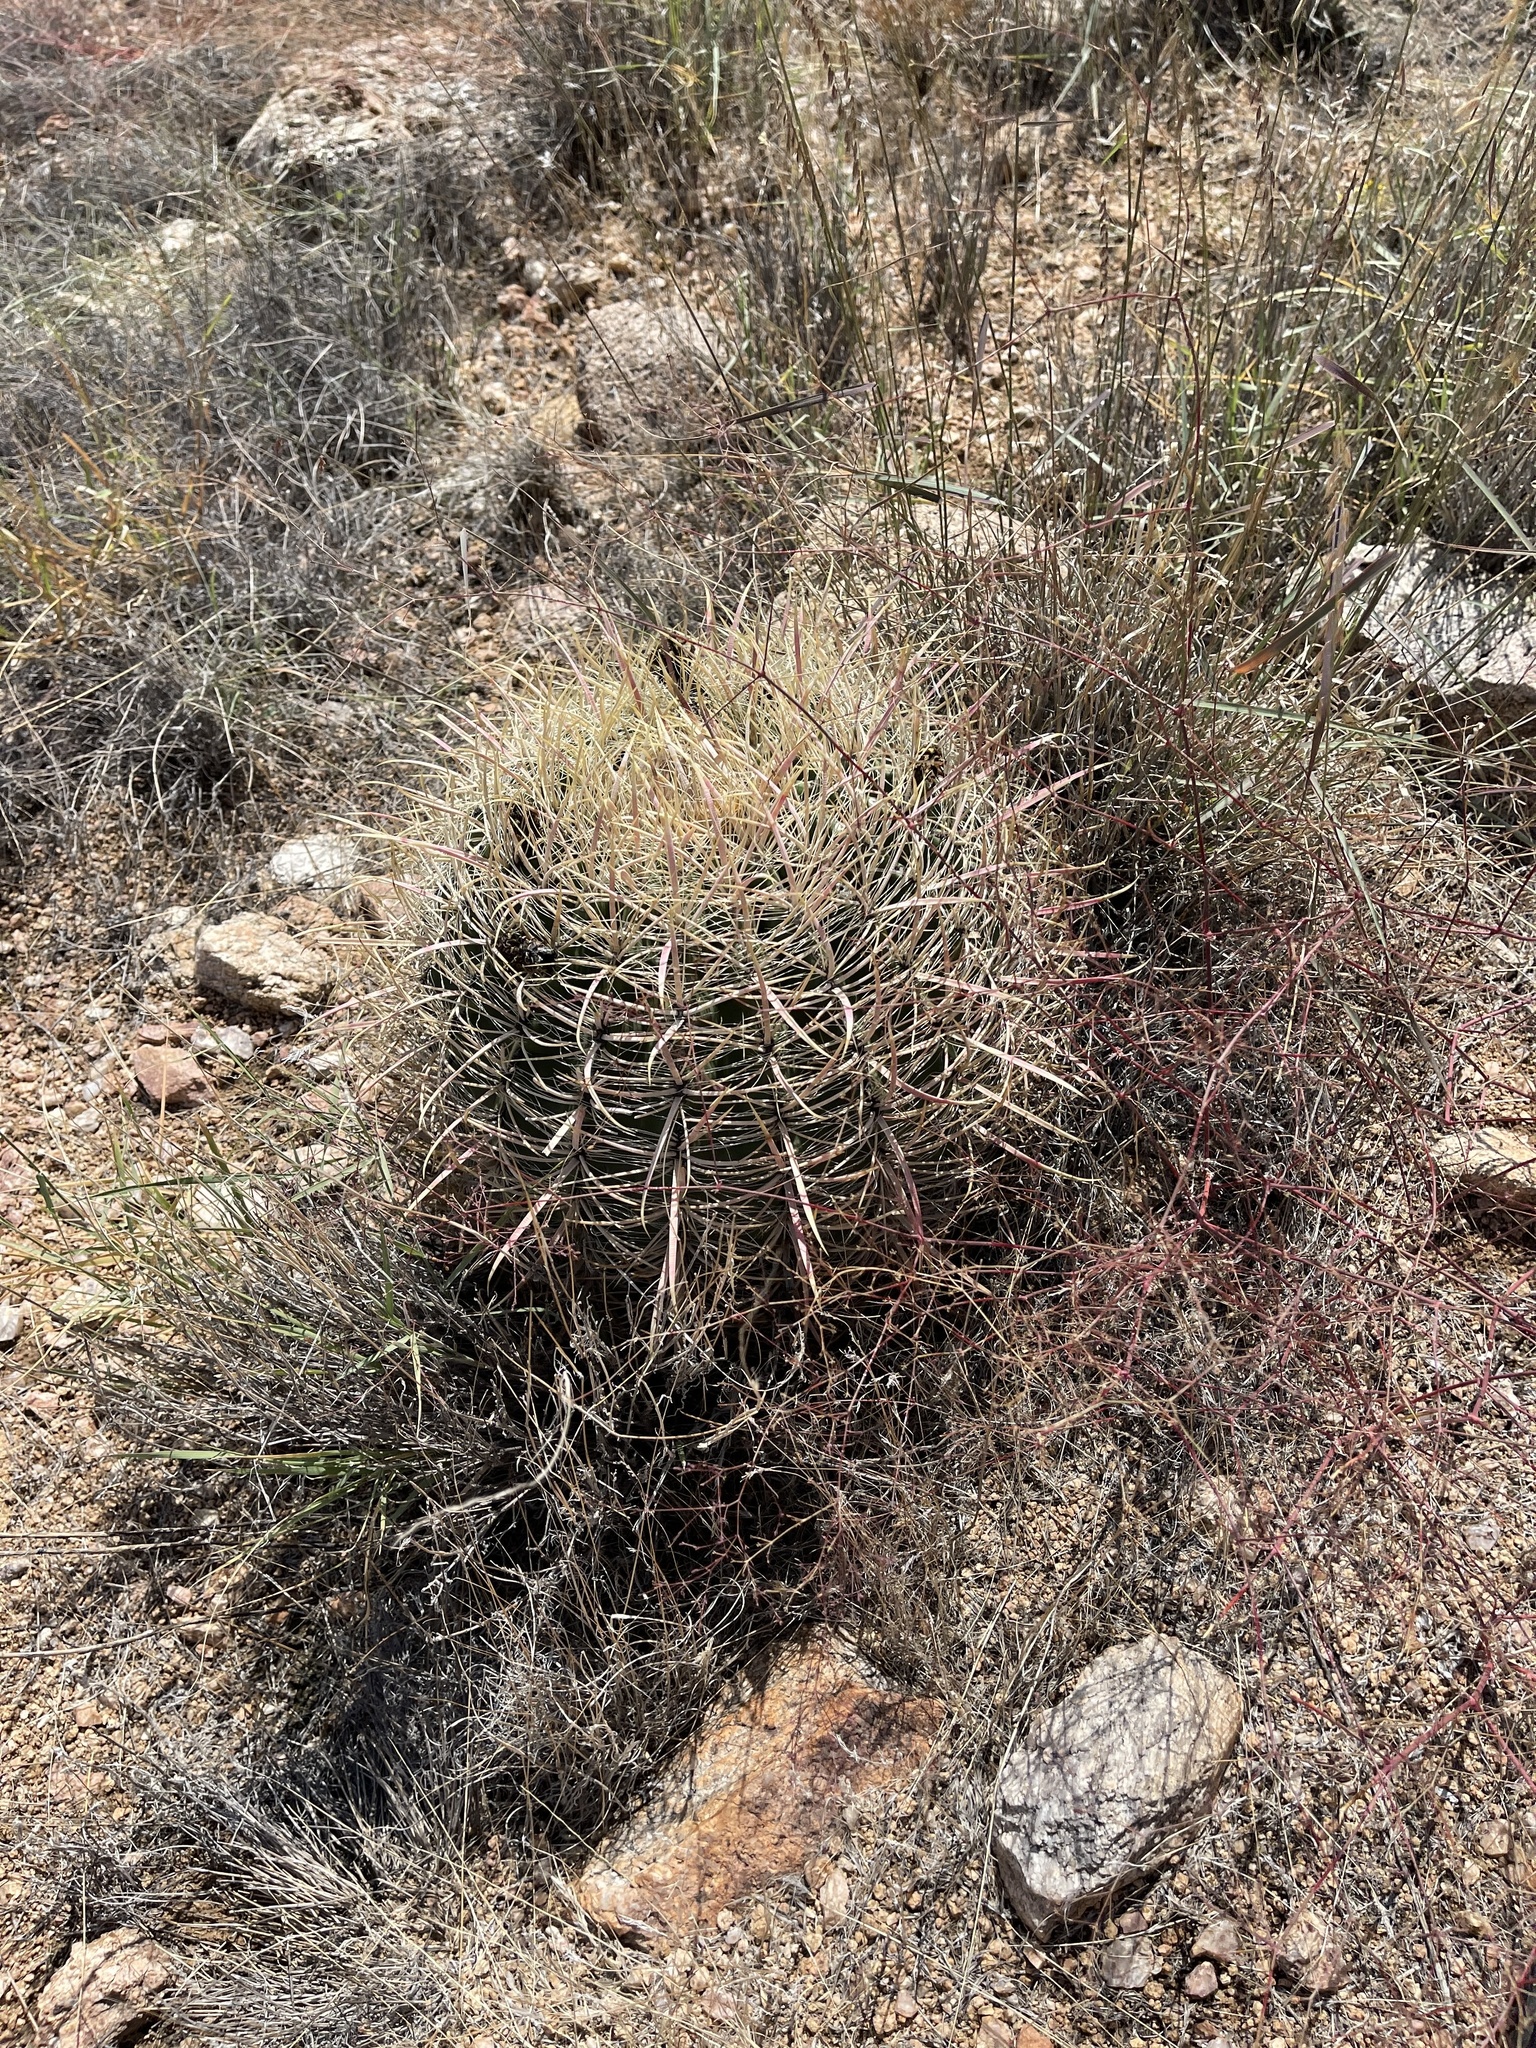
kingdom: Plantae
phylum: Tracheophyta
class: Magnoliopsida
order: Caryophyllales
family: Cactaceae
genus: Ferocactus
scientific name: Ferocactus cylindraceus
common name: California barrel cactus
